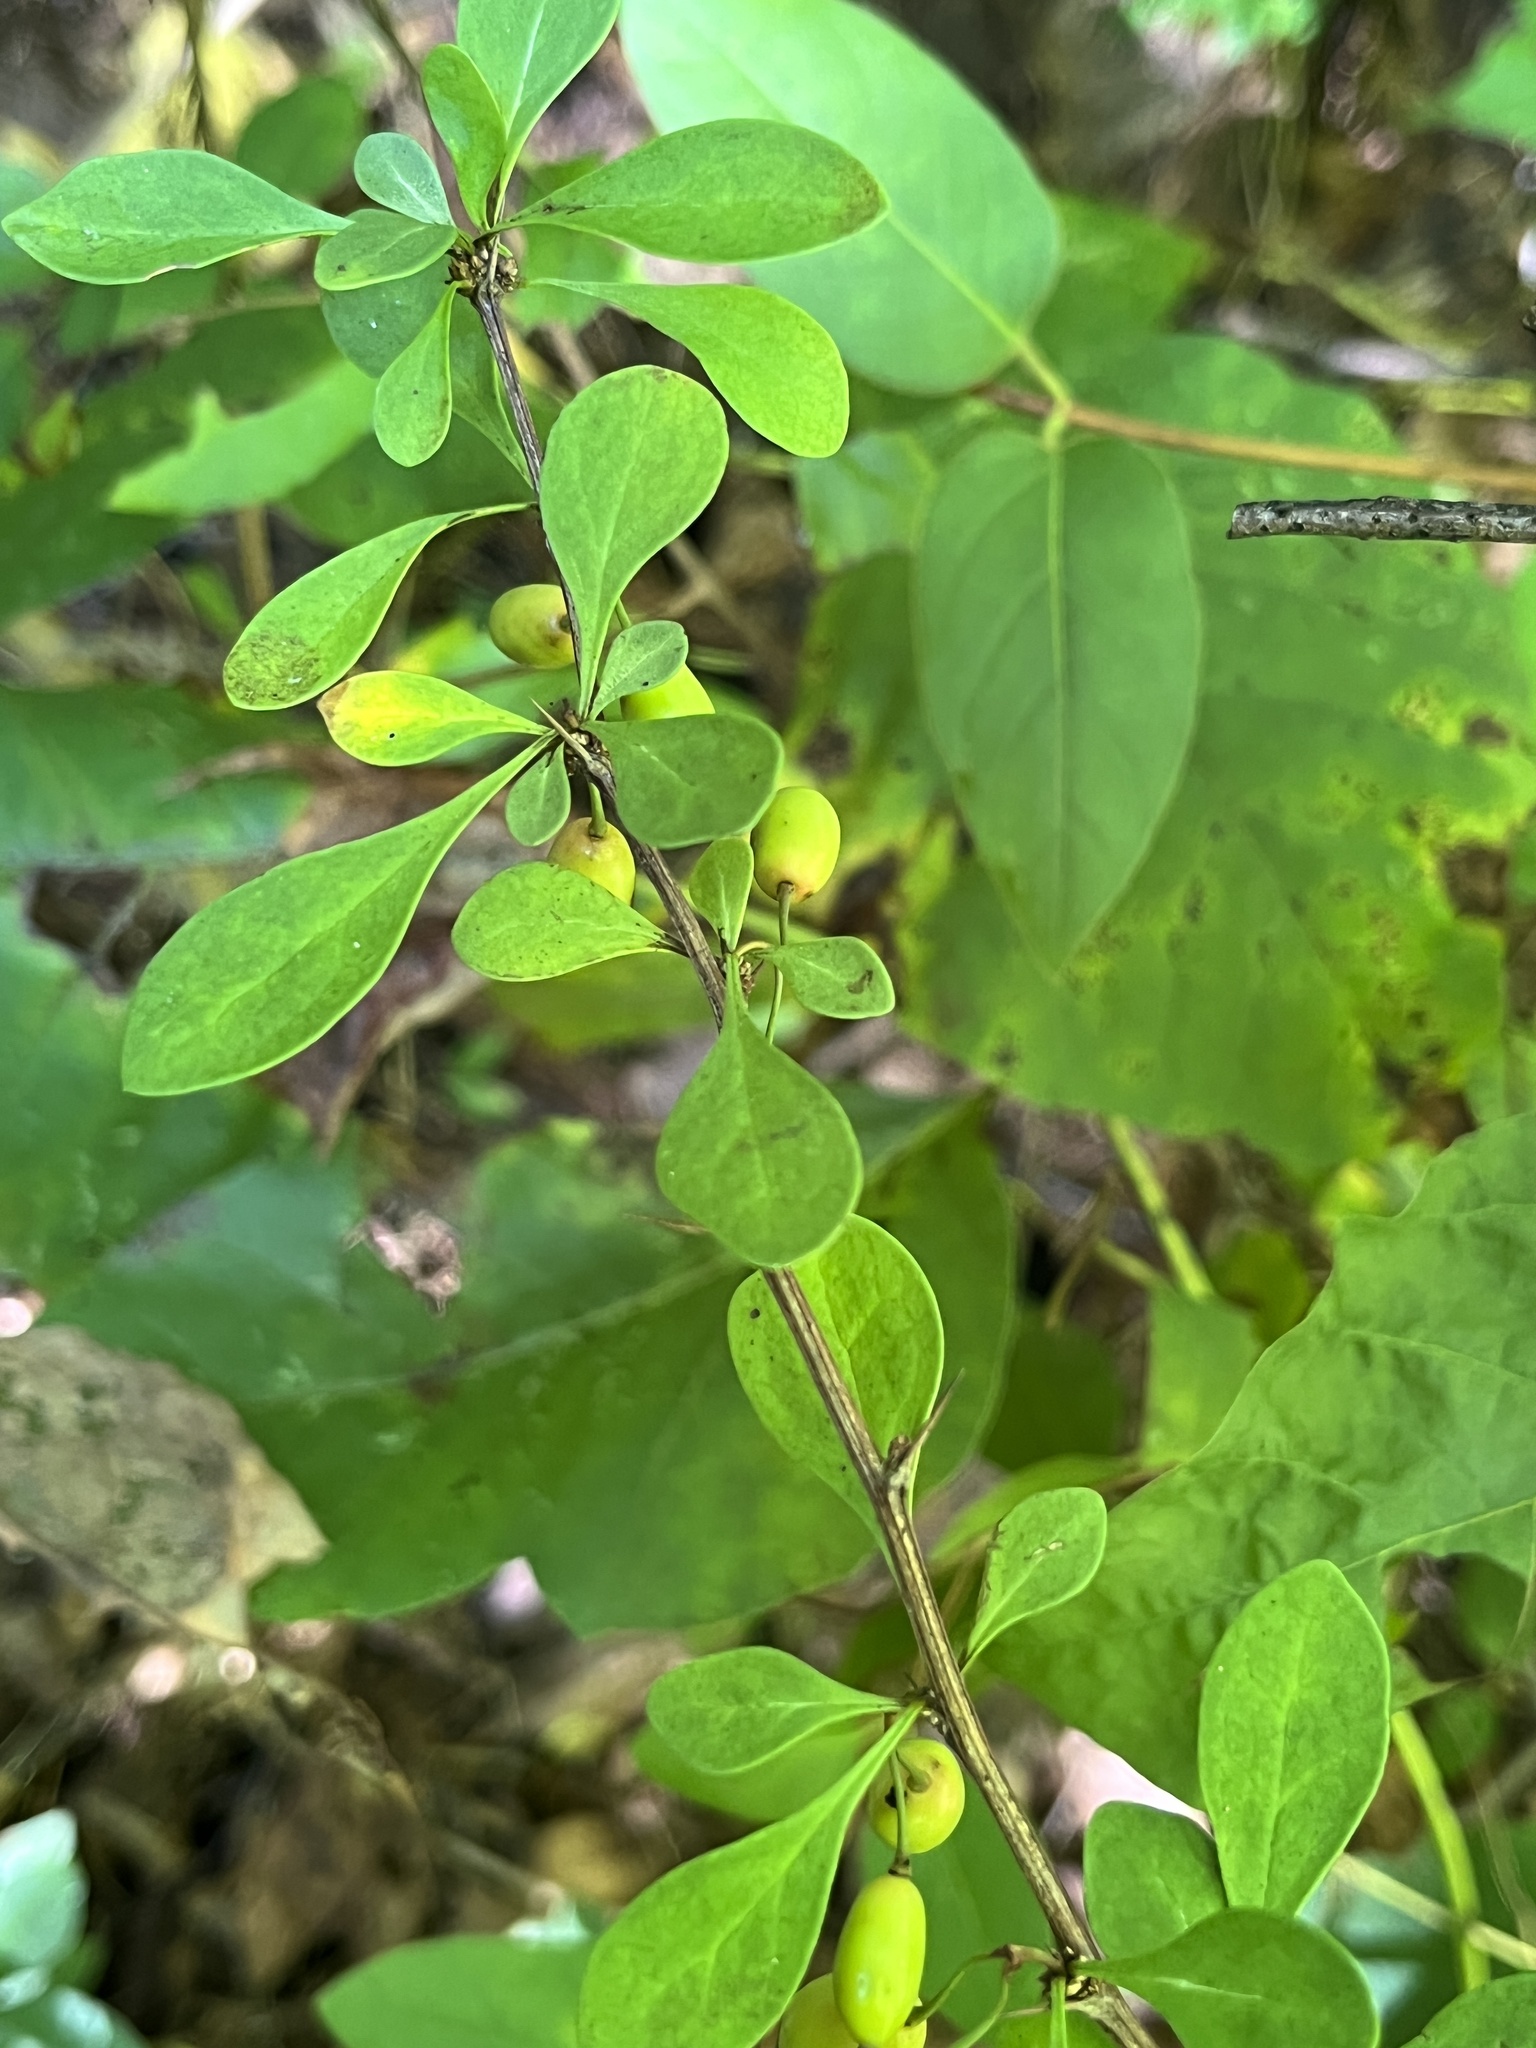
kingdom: Plantae
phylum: Tracheophyta
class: Magnoliopsida
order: Ranunculales
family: Berberidaceae
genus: Berberis
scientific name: Berberis thunbergii
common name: Japanese barberry
